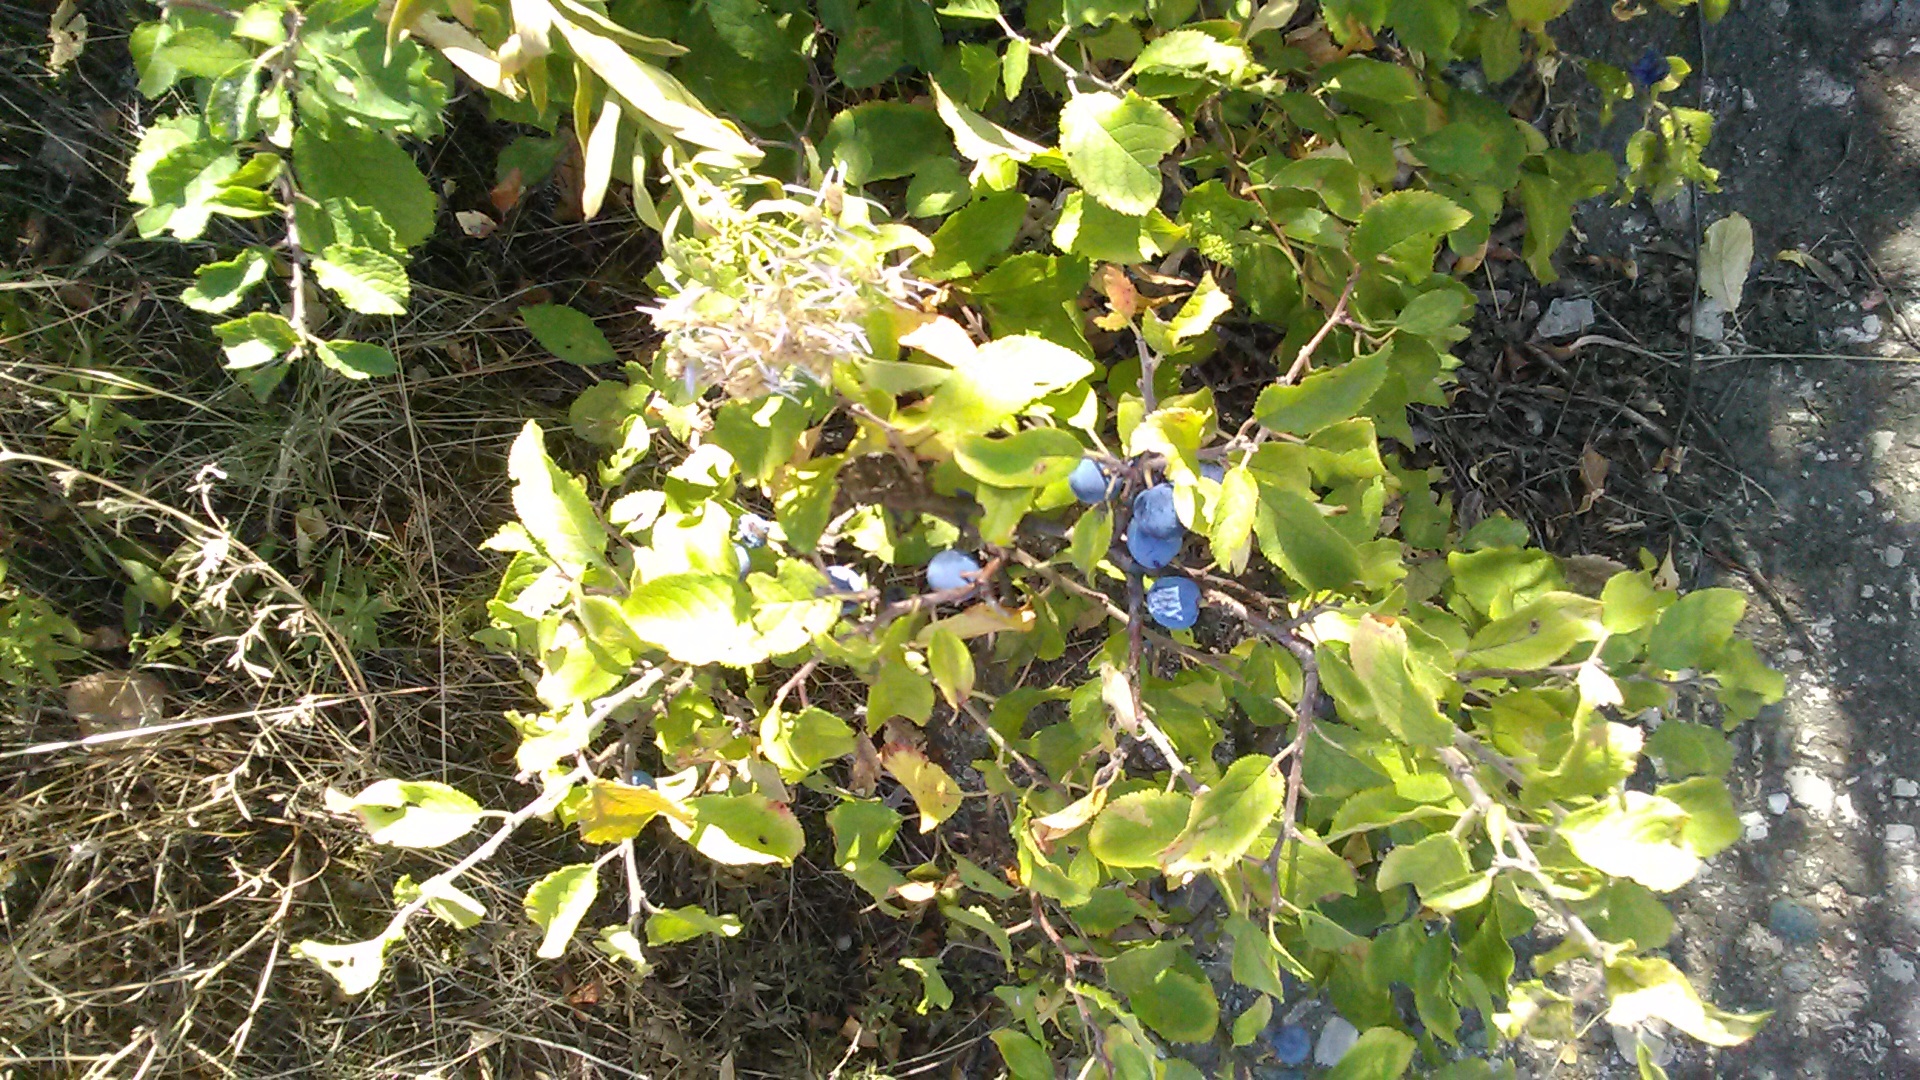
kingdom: Plantae
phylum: Tracheophyta
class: Magnoliopsida
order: Rosales
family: Rosaceae
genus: Prunus
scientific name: Prunus spinosa
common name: Blackthorn
